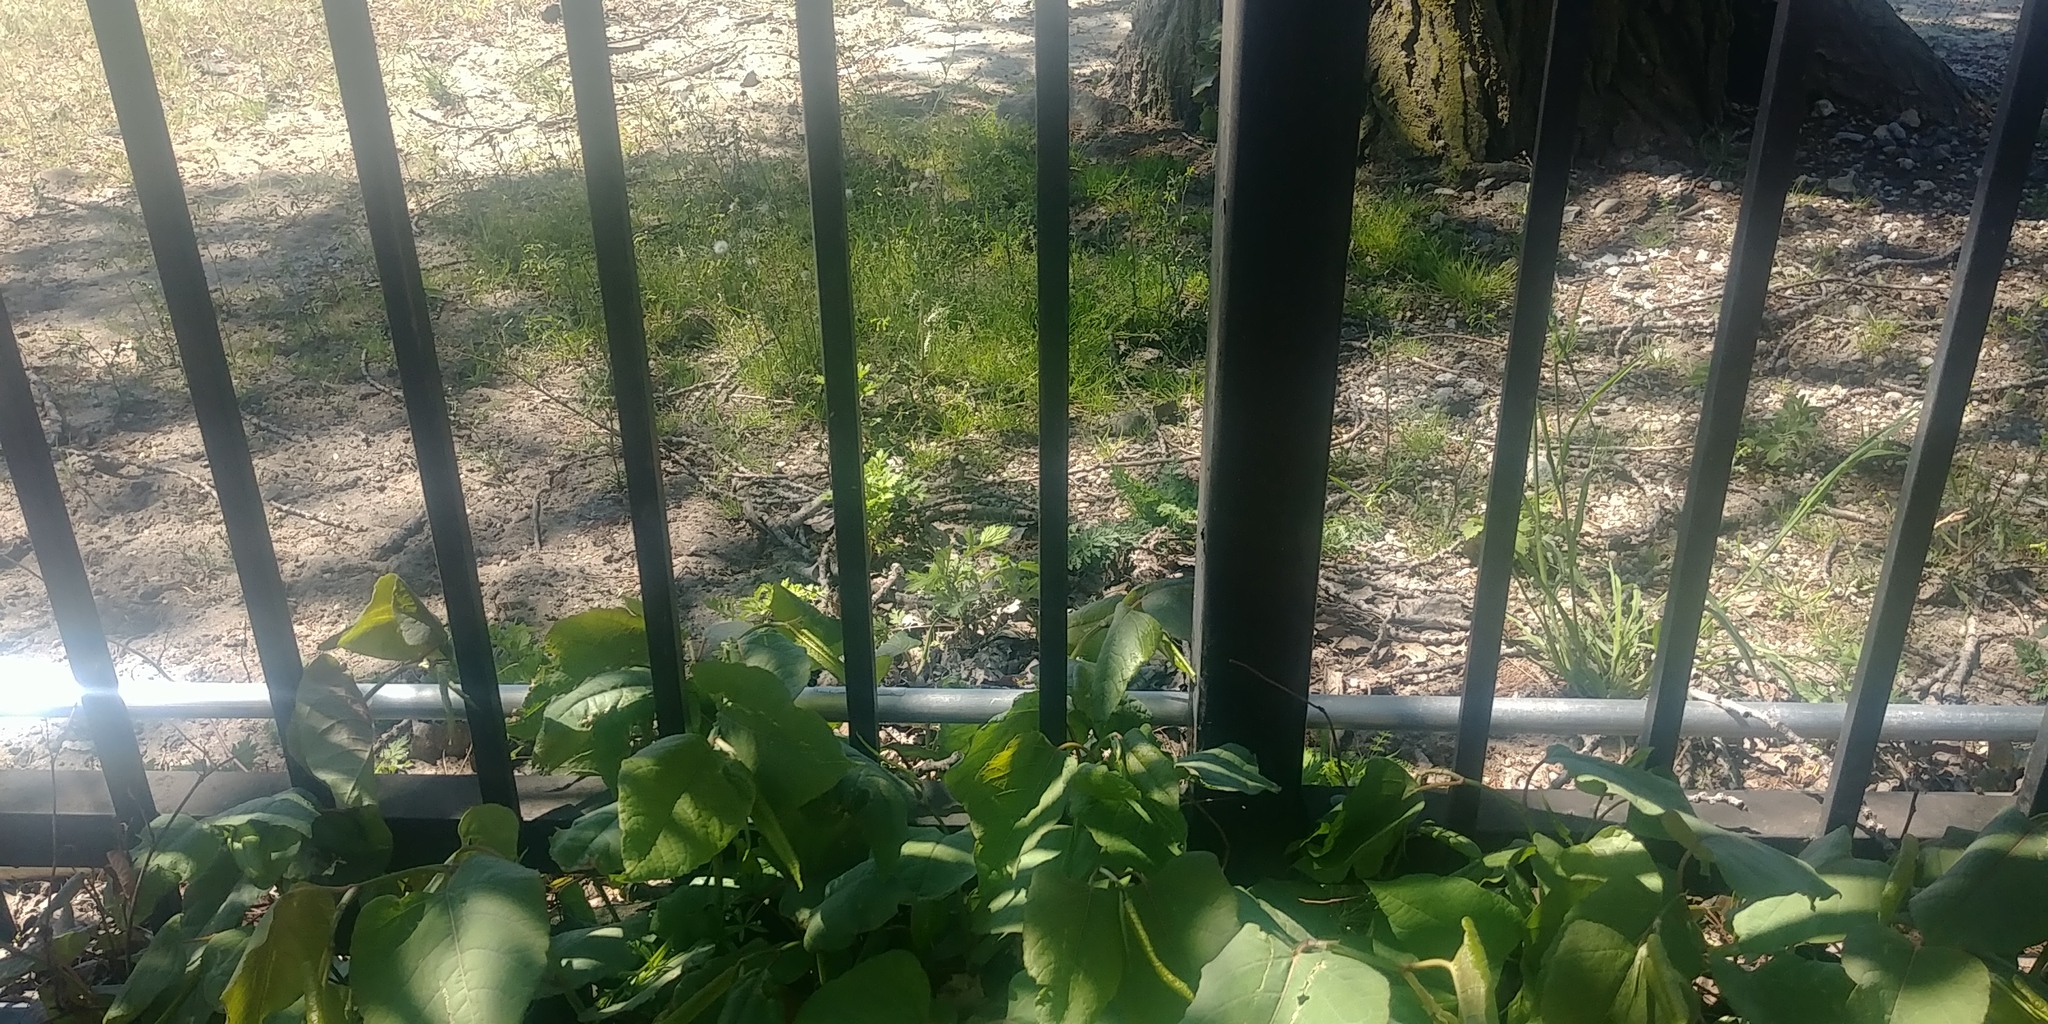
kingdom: Plantae
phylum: Tracheophyta
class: Magnoliopsida
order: Caryophyllales
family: Polygonaceae
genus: Reynoutria
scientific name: Reynoutria japonica
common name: Japanese knotweed
